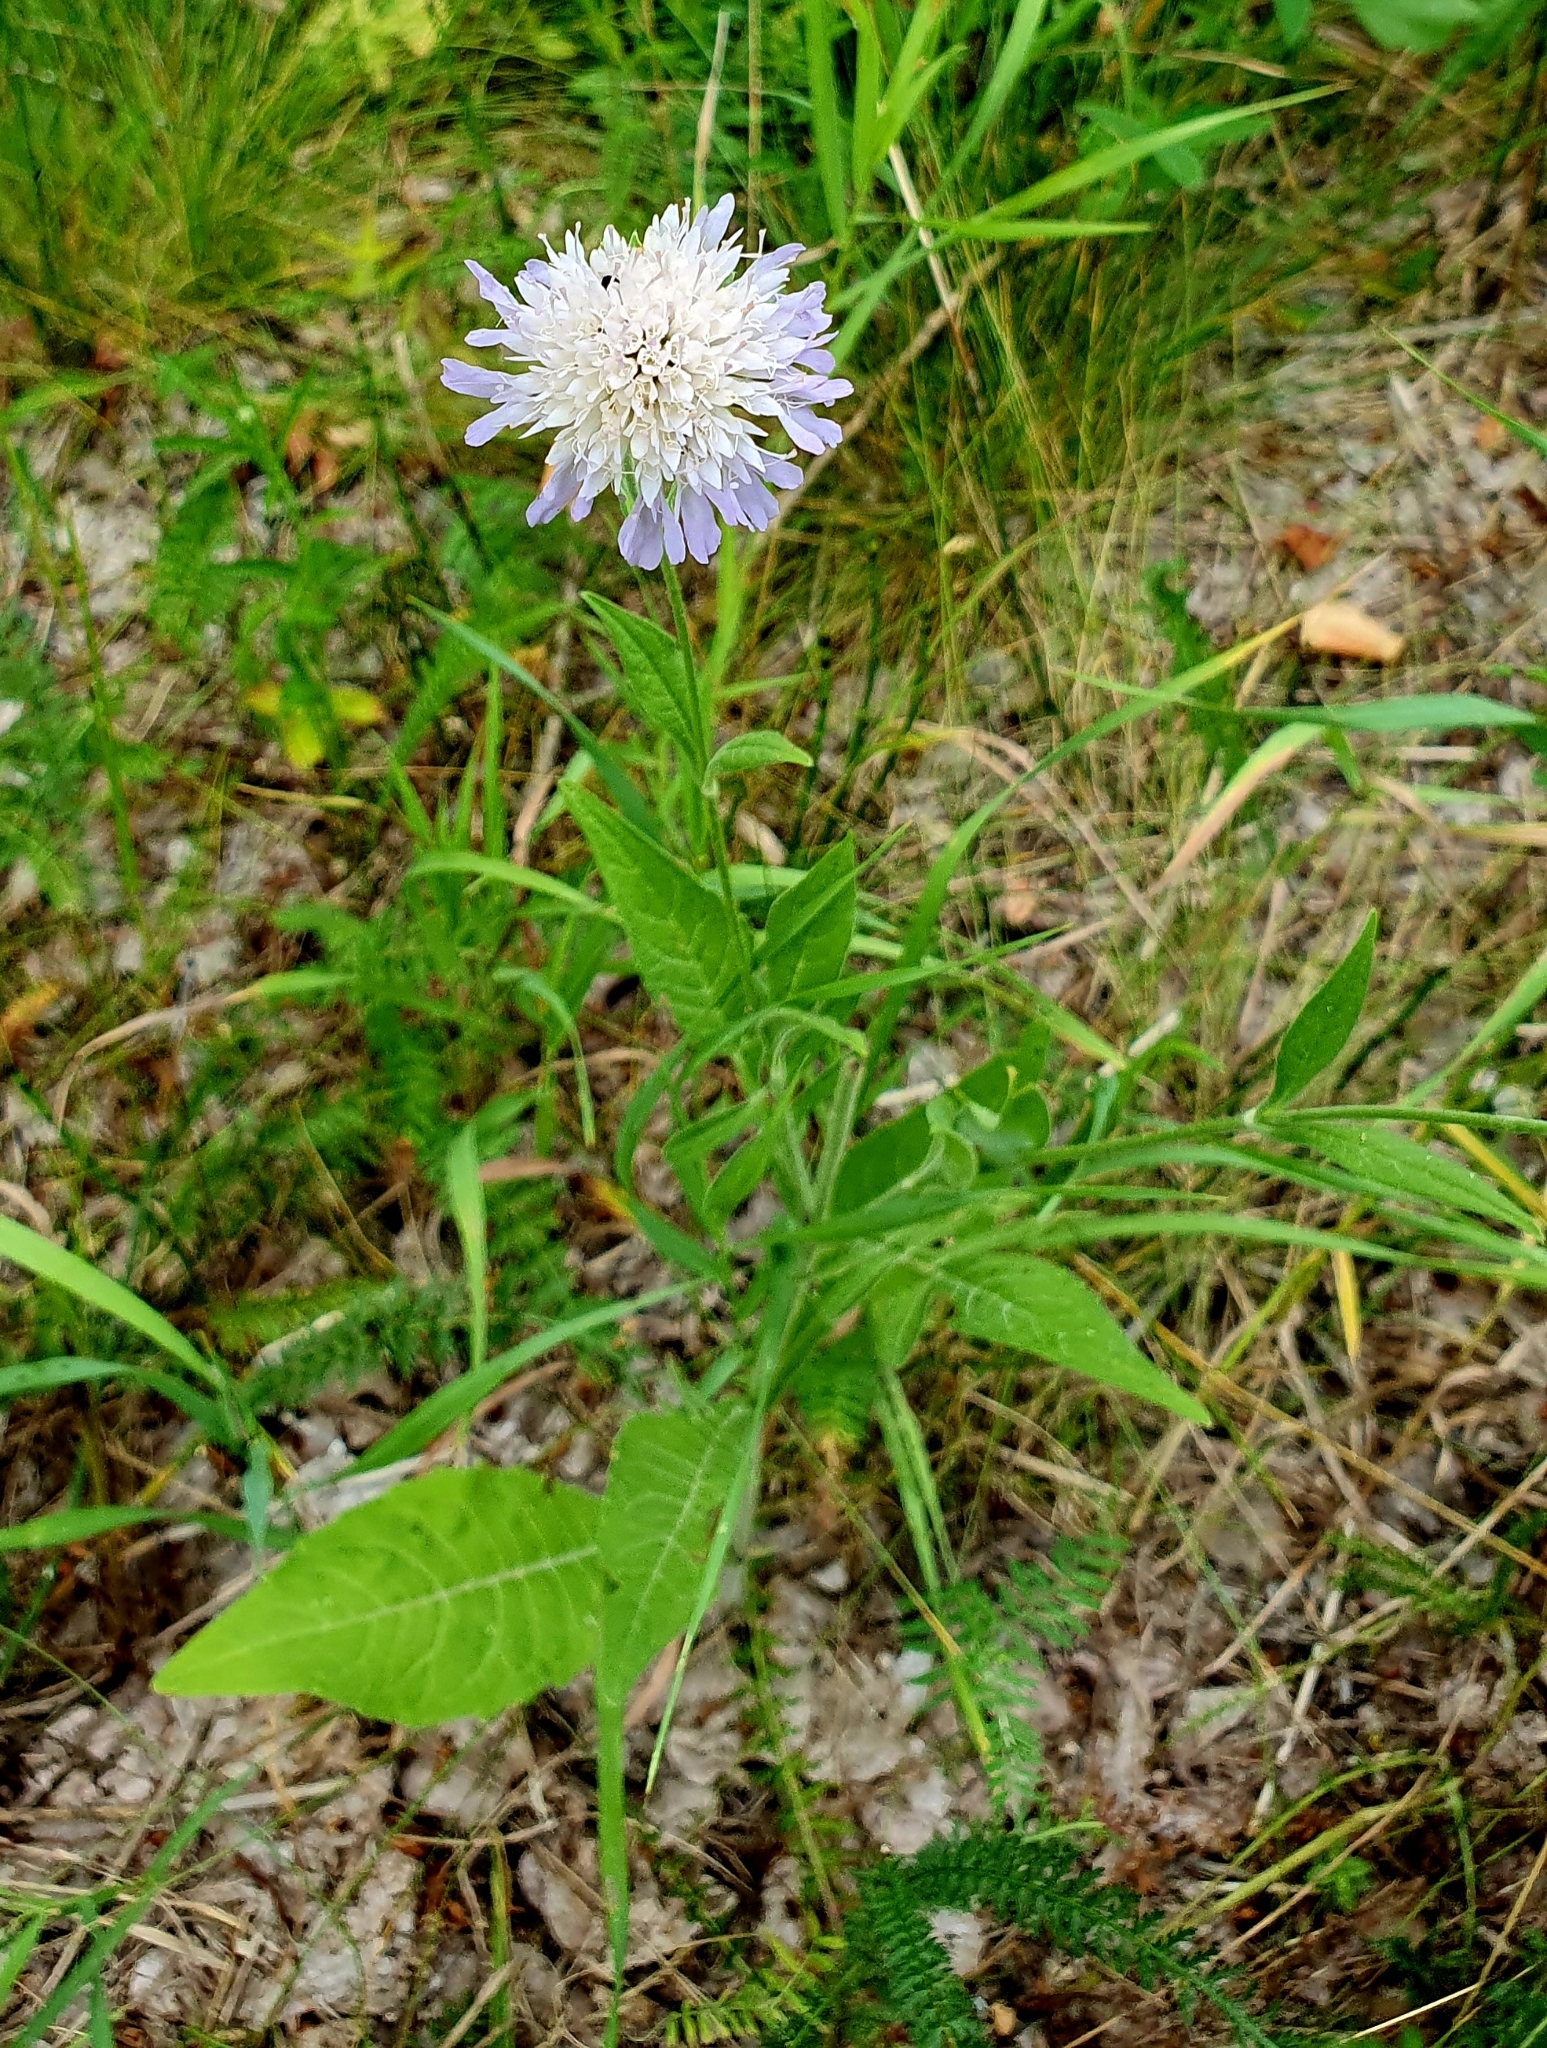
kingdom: Plantae
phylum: Tracheophyta
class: Magnoliopsida
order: Dipsacales
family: Caprifoliaceae
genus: Knautia
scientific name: Knautia arvensis
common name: Field scabiosa
